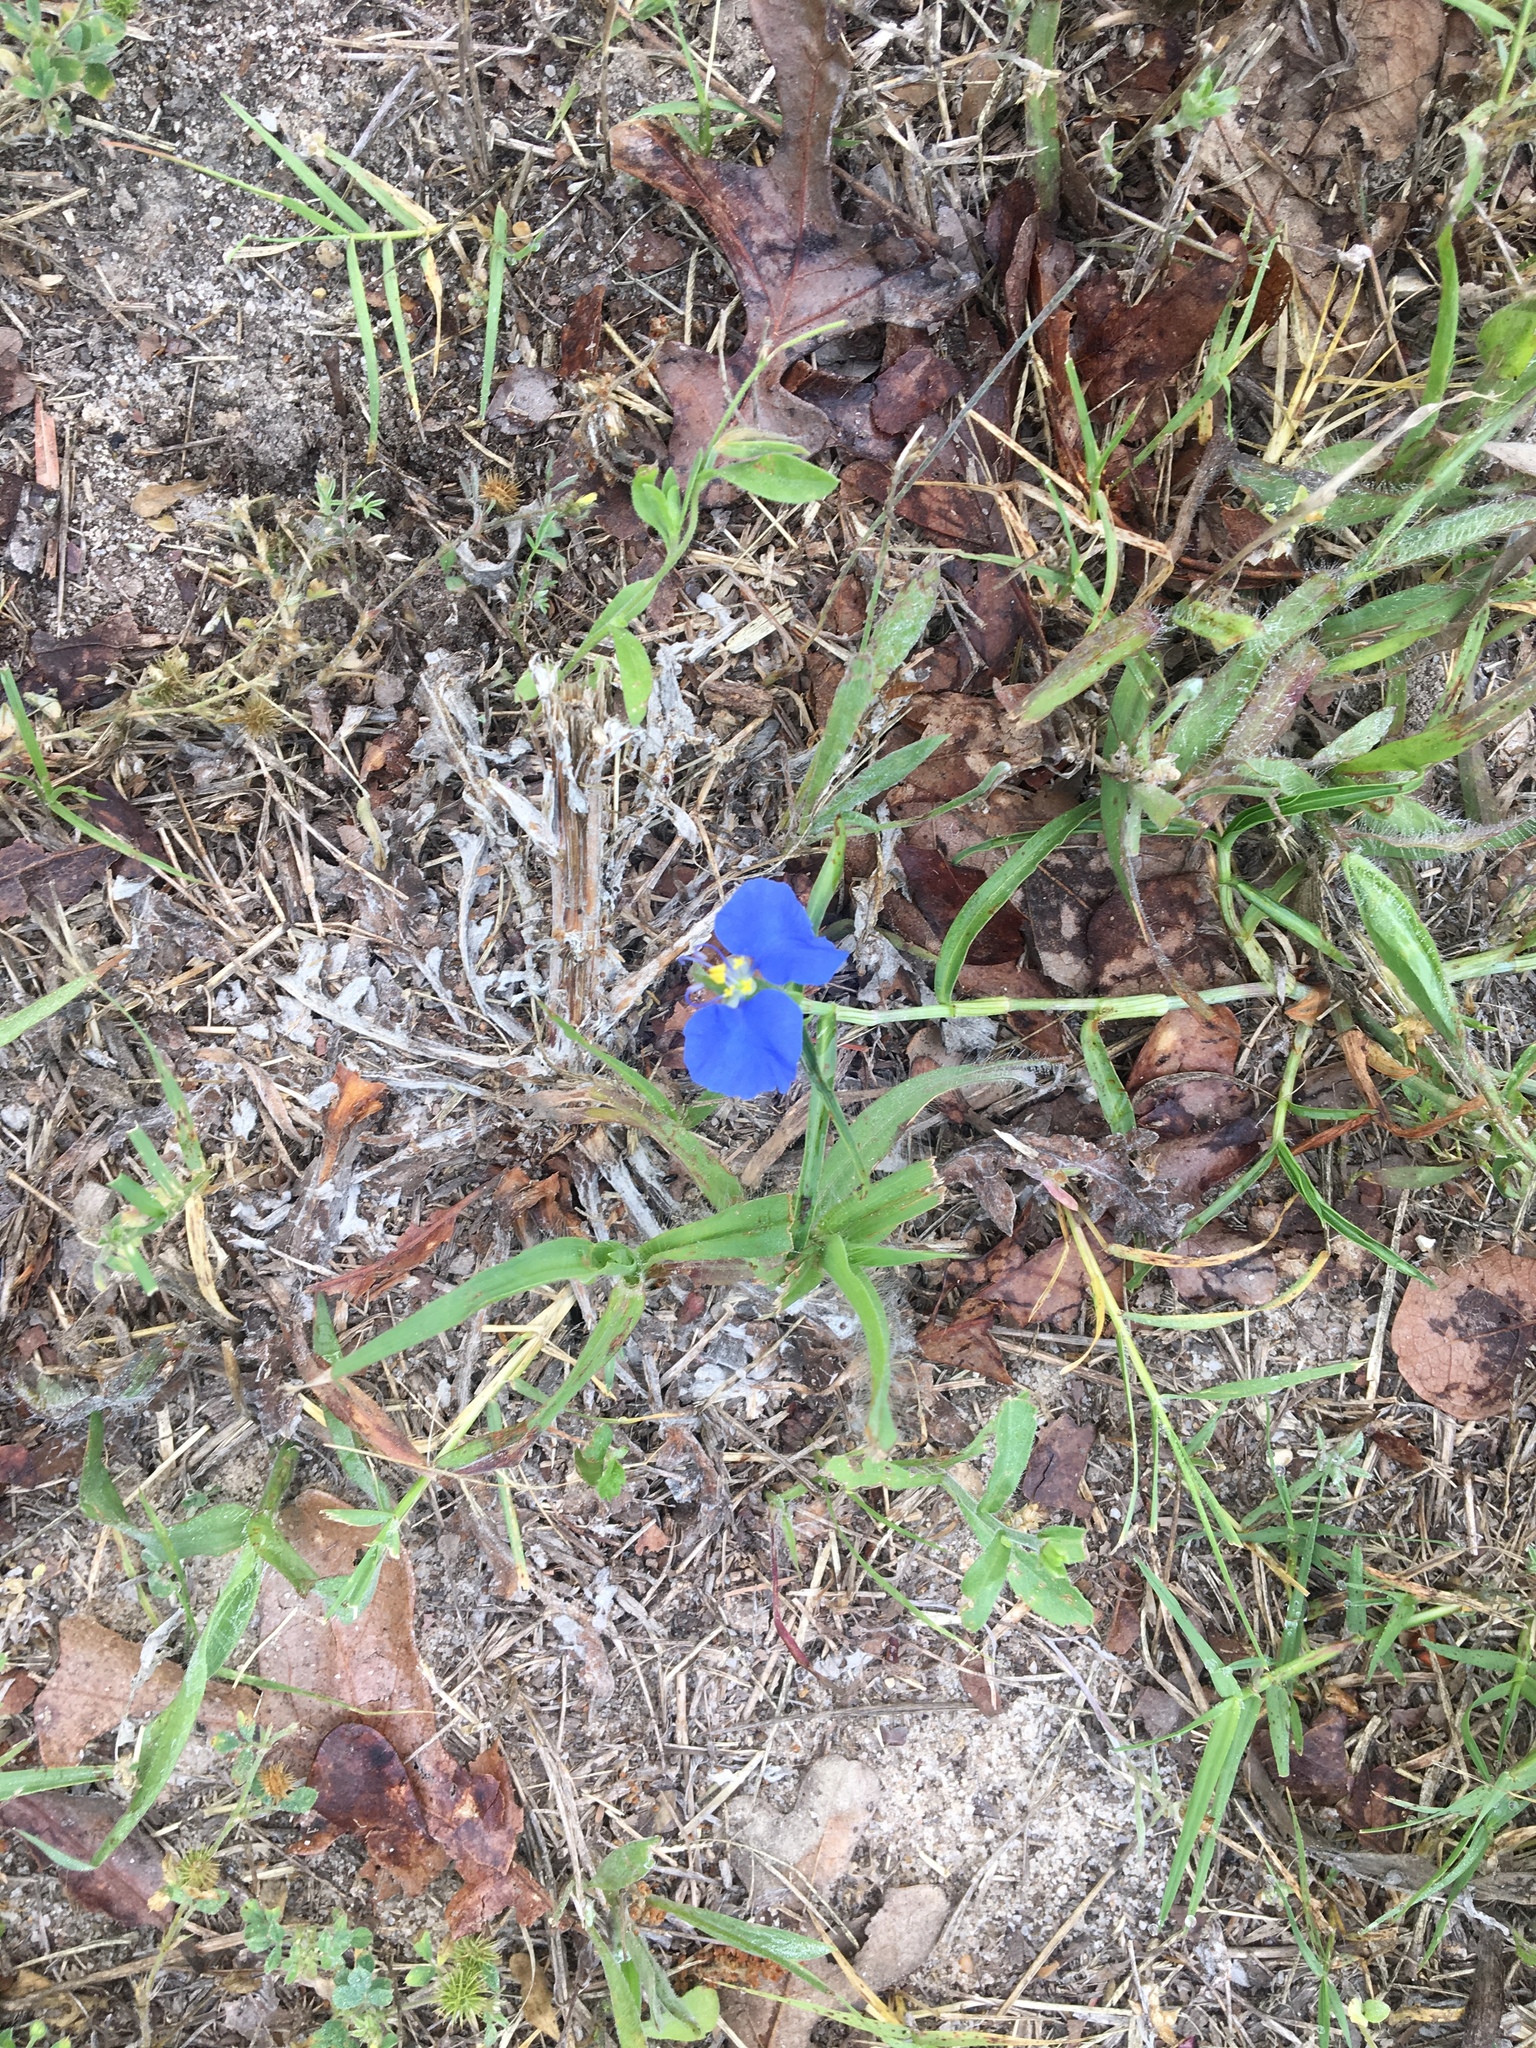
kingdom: Plantae
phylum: Tracheophyta
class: Liliopsida
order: Commelinales
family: Commelinaceae
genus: Commelina
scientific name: Commelina erecta
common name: Blousel blommetjie
